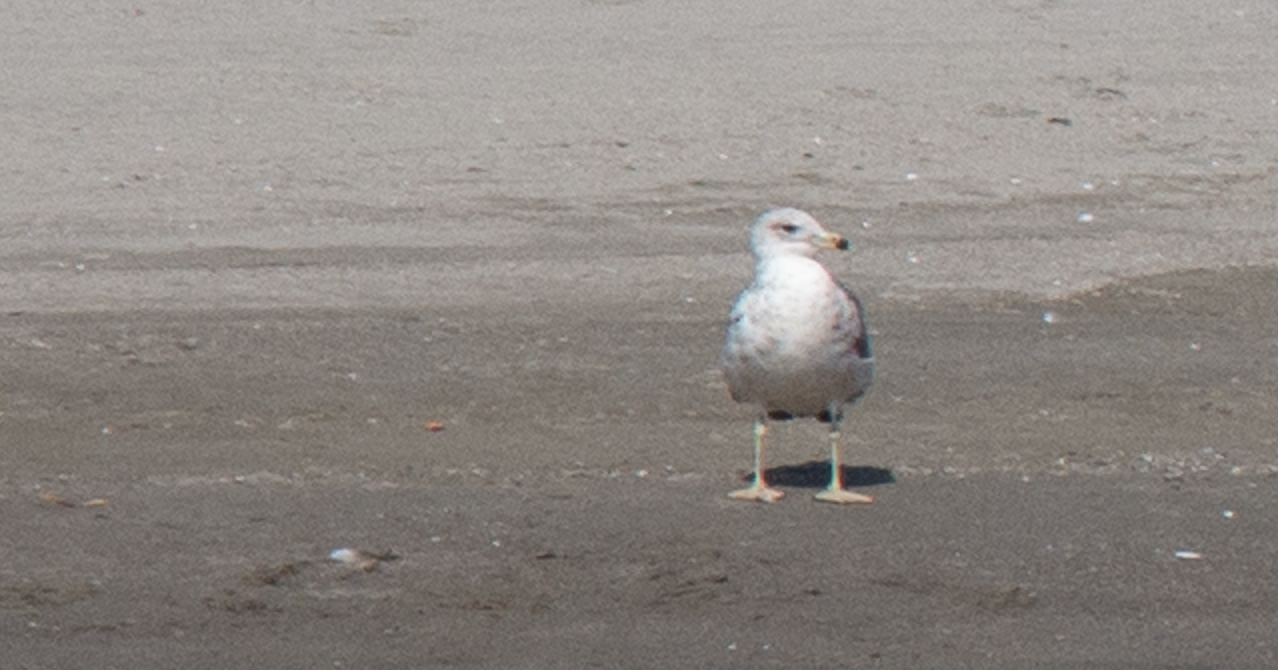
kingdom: Animalia
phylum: Chordata
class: Aves
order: Charadriiformes
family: Laridae
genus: Larus
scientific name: Larus michahellis
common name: Yellow-legged gull
